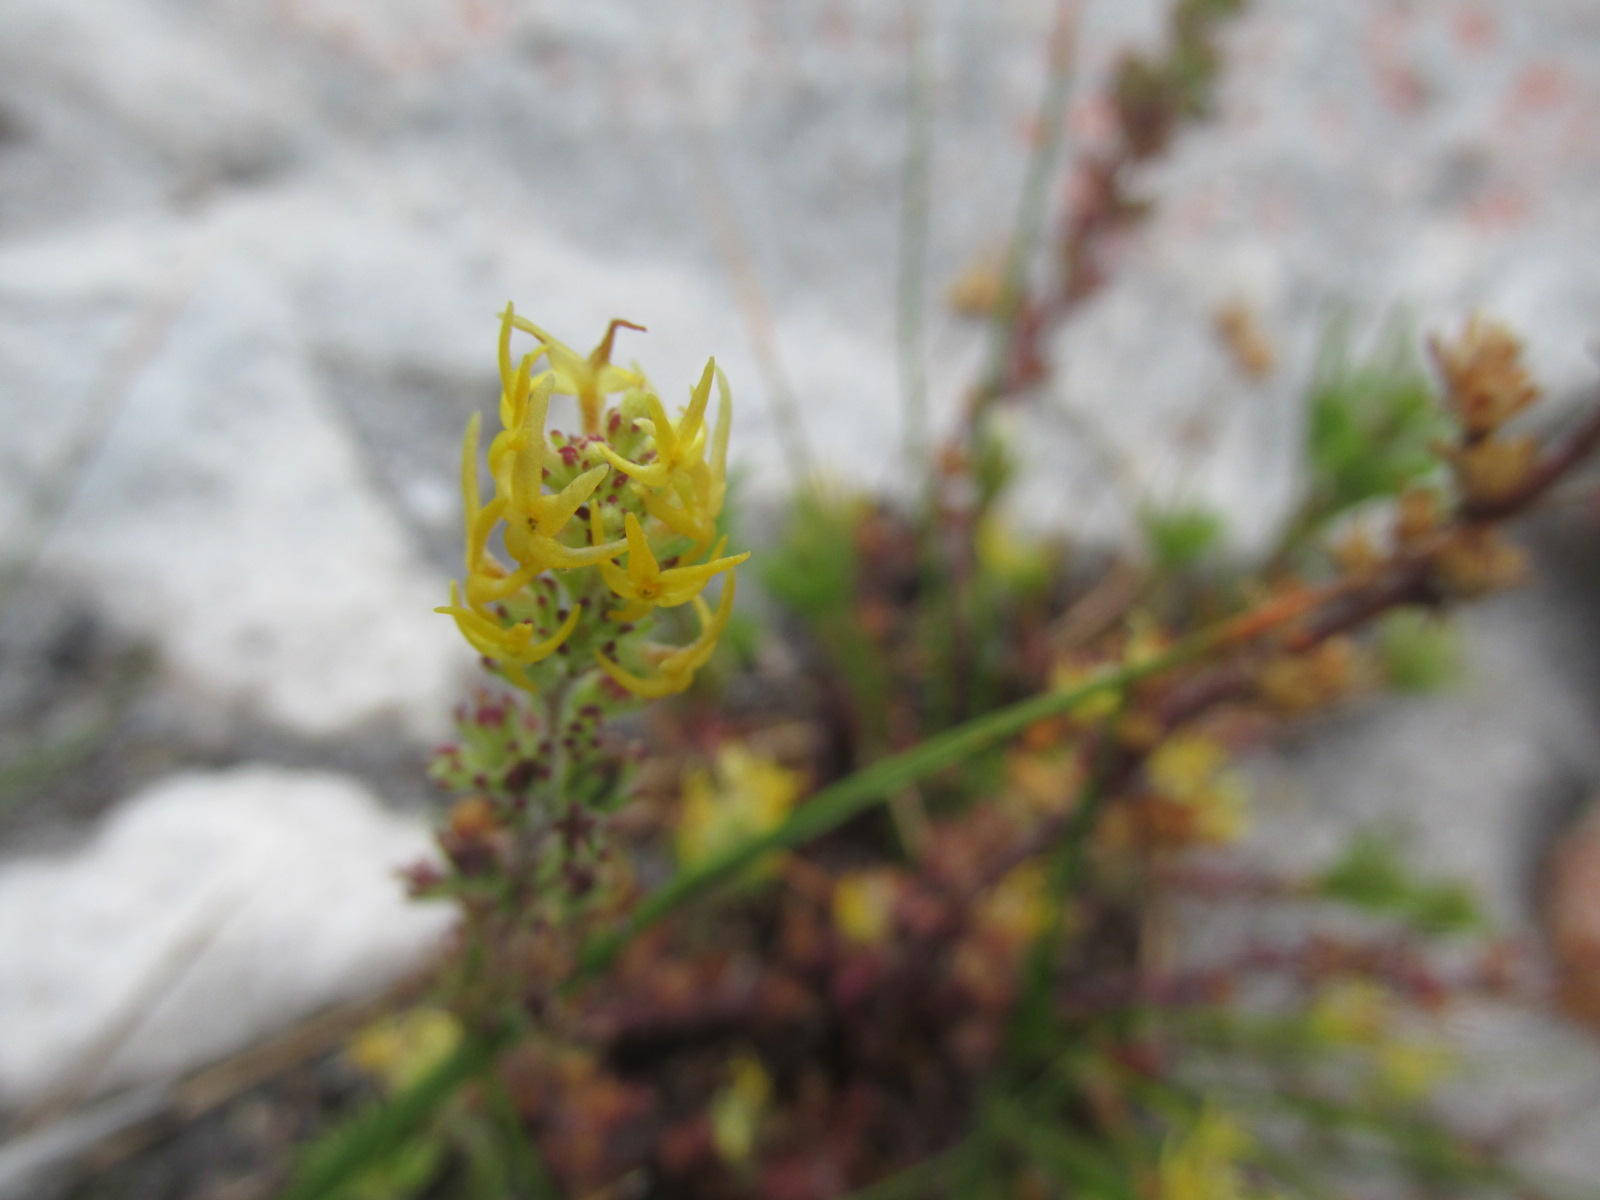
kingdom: Plantae
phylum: Tracheophyta
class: Magnoliopsida
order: Lamiales
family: Scrophulariaceae
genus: Manulea
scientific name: Manulea cheiranthus
